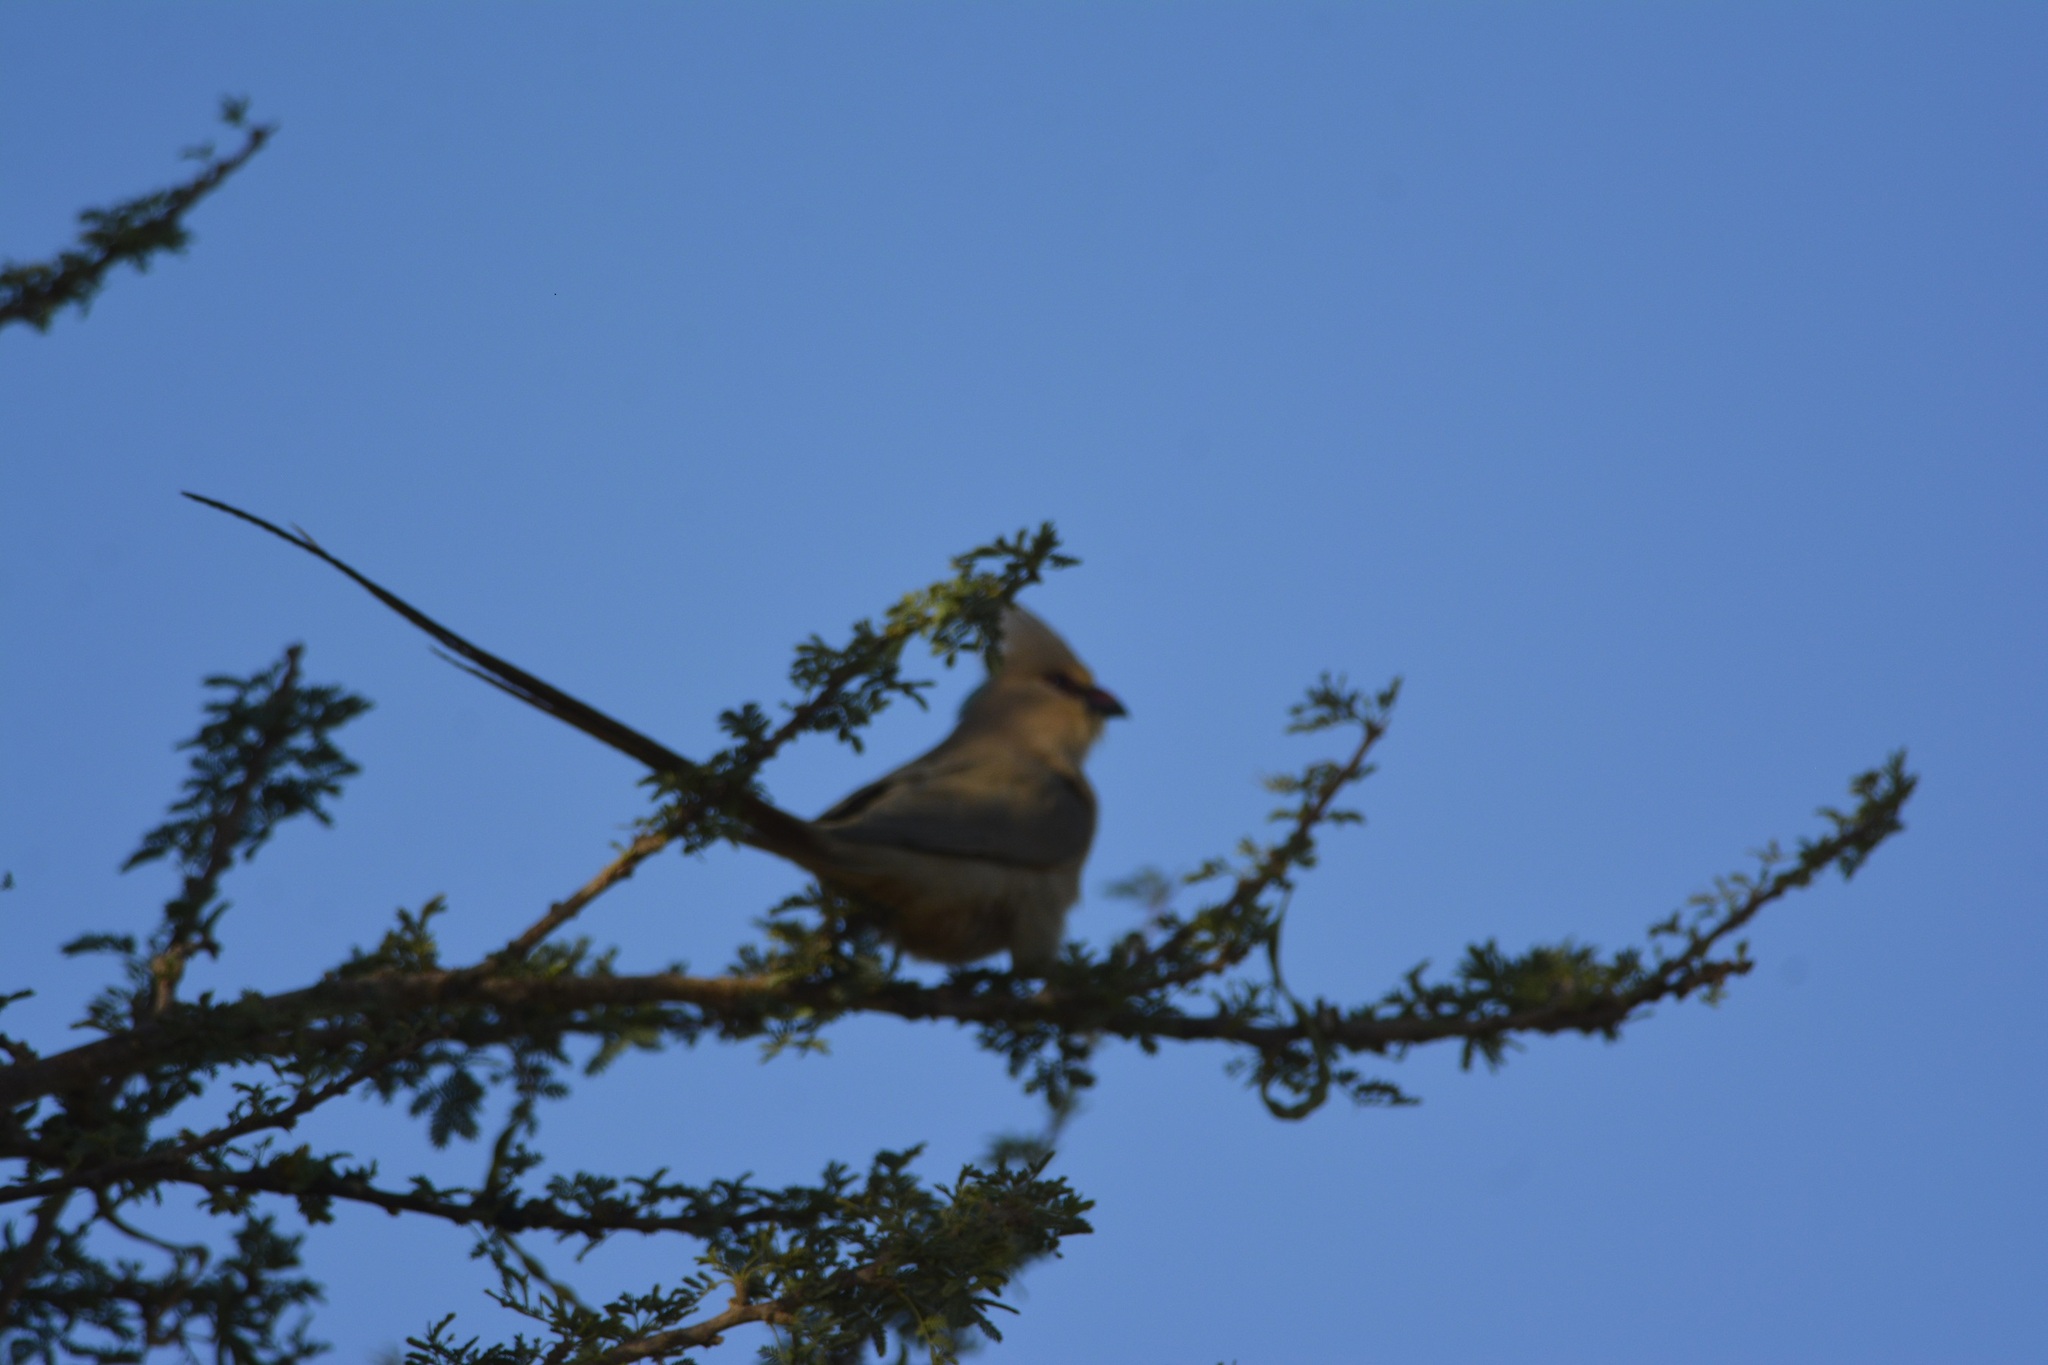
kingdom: Animalia
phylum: Chordata
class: Aves
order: Coliiformes
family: Coliidae
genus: Urocolius
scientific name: Urocolius macrourus
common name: Blue-naped mousebird
